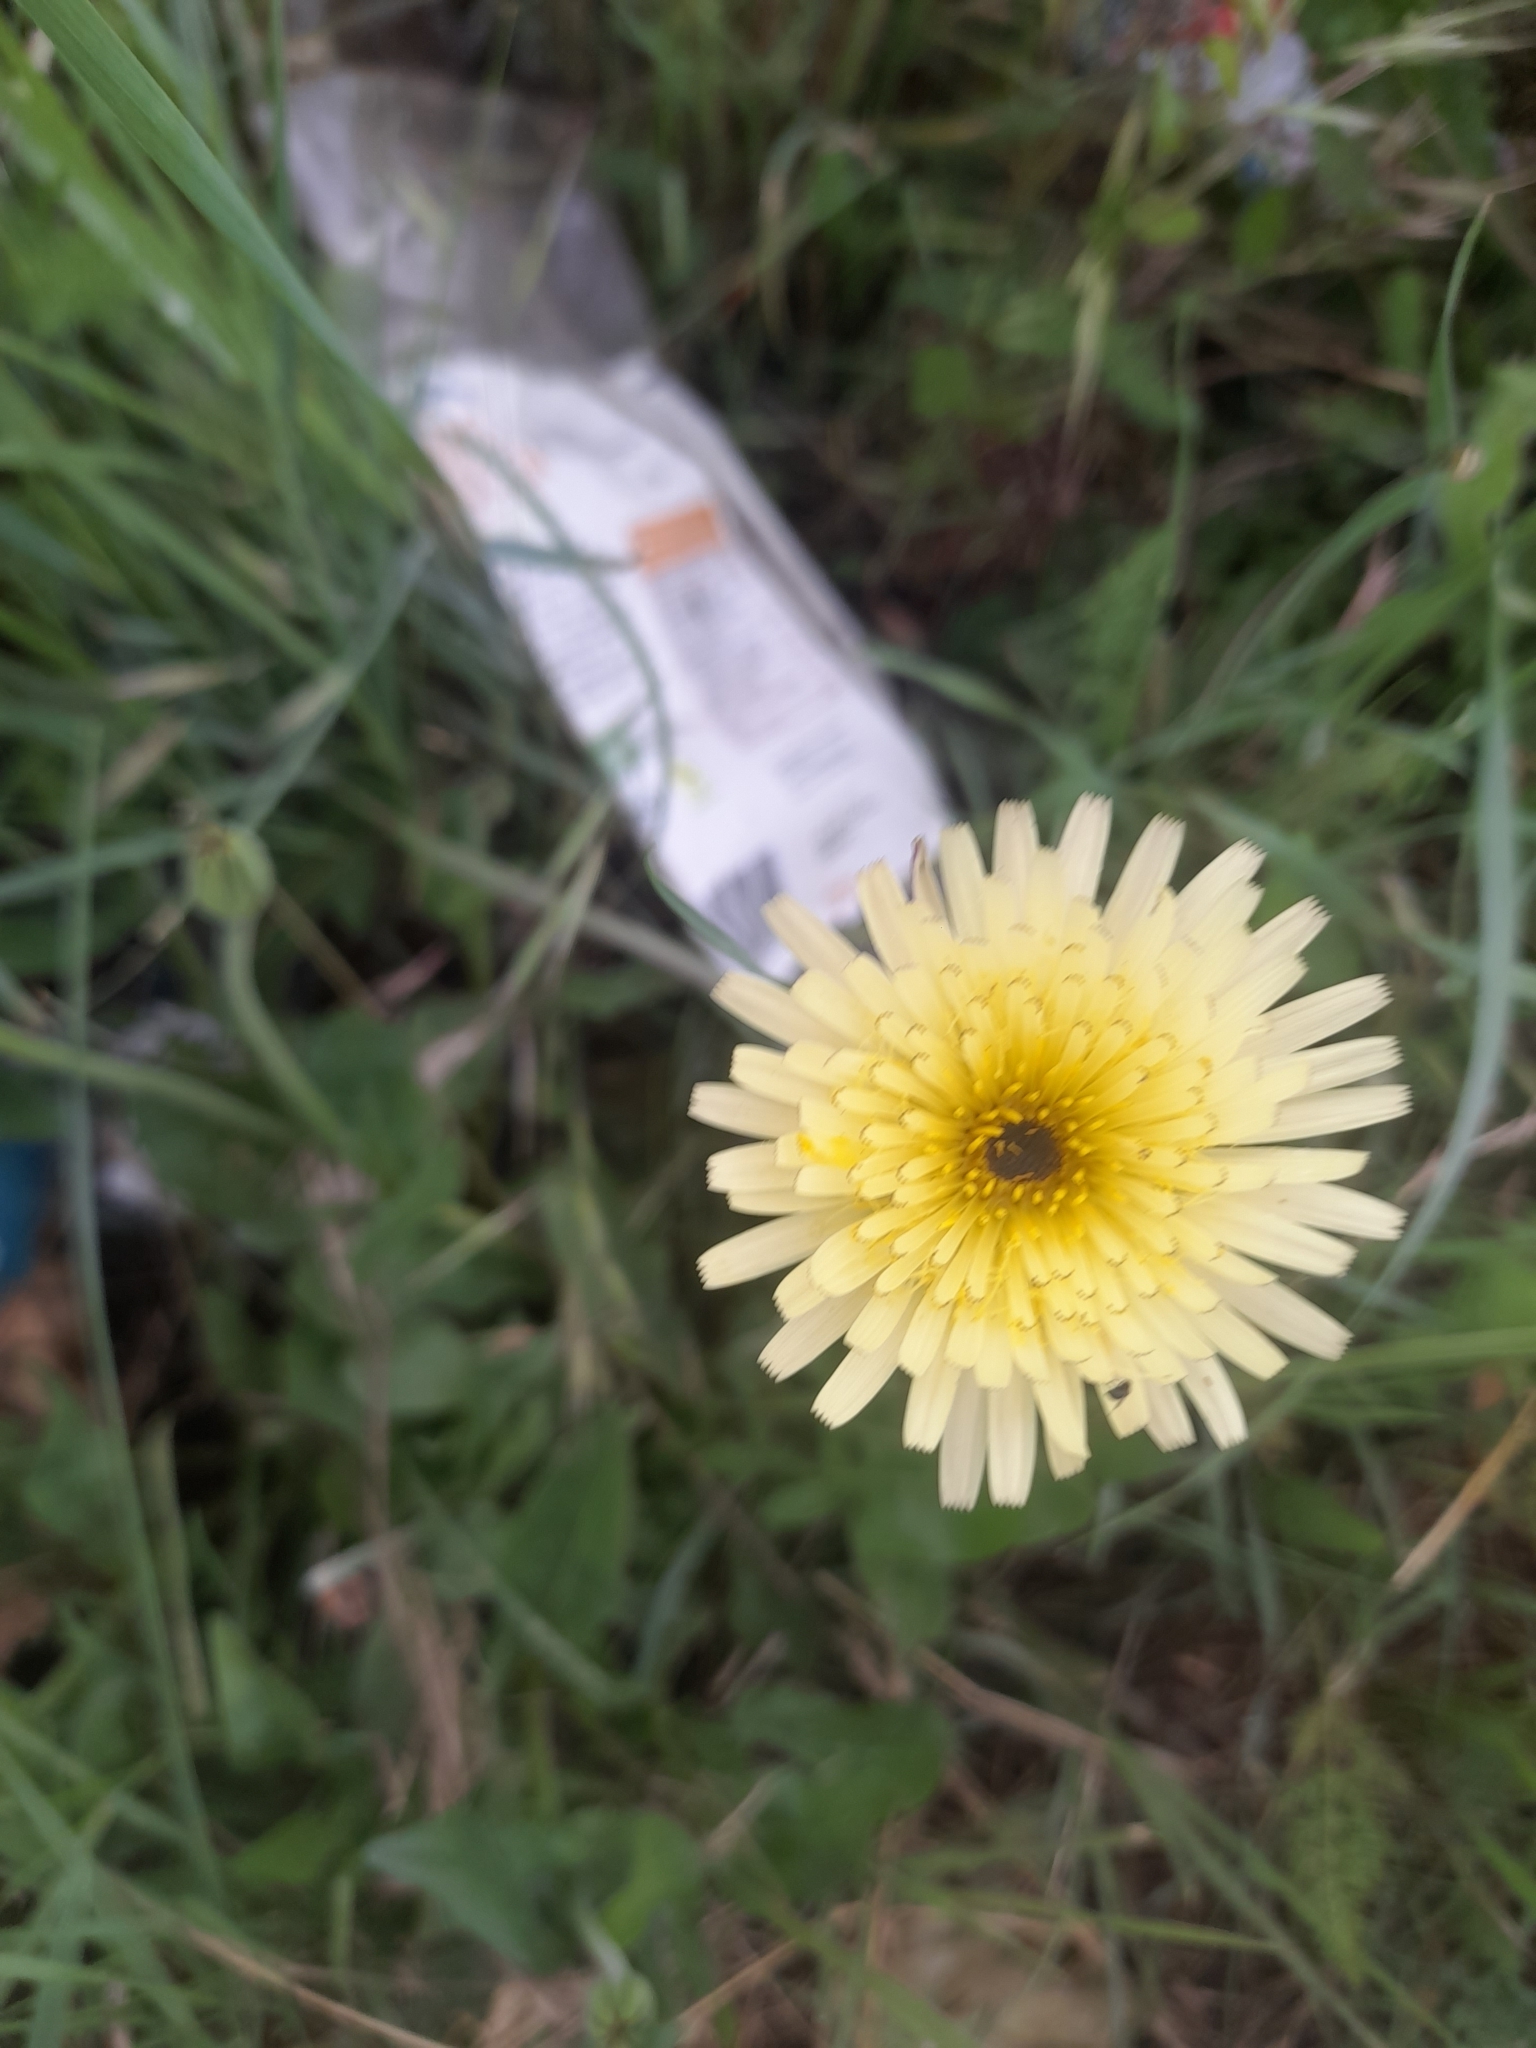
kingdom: Plantae
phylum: Tracheophyta
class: Magnoliopsida
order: Asterales
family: Asteraceae
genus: Urospermum
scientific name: Urospermum dalechampii
